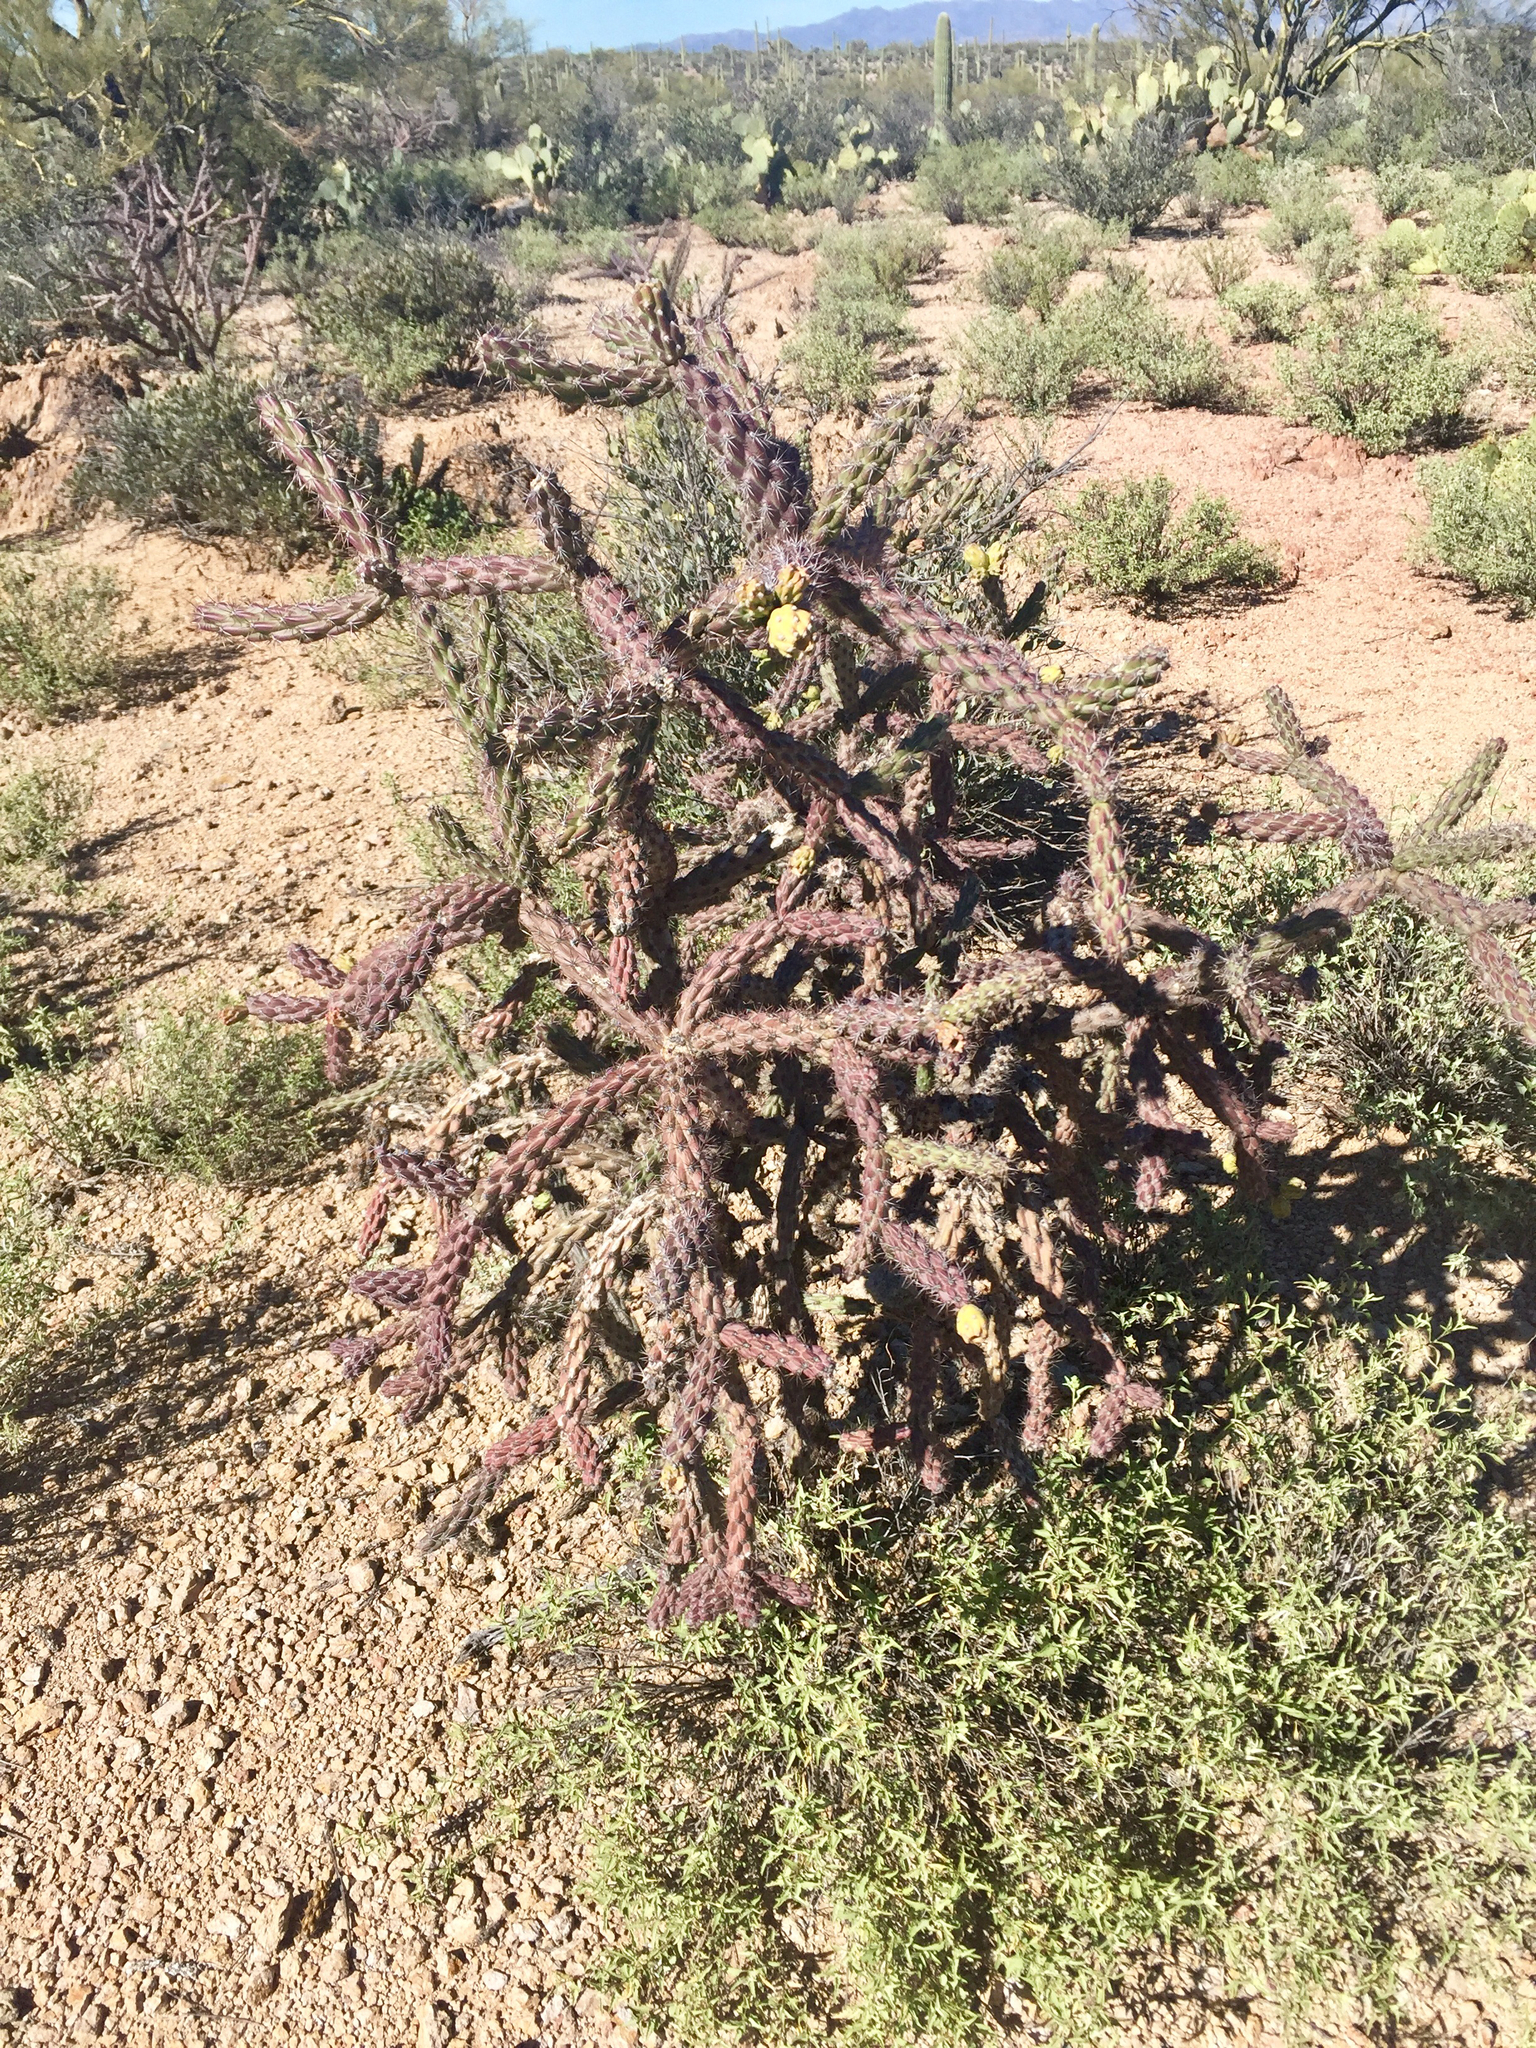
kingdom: Plantae
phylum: Tracheophyta
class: Magnoliopsida
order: Caryophyllales
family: Cactaceae
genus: Cylindropuntia
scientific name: Cylindropuntia thurberi
